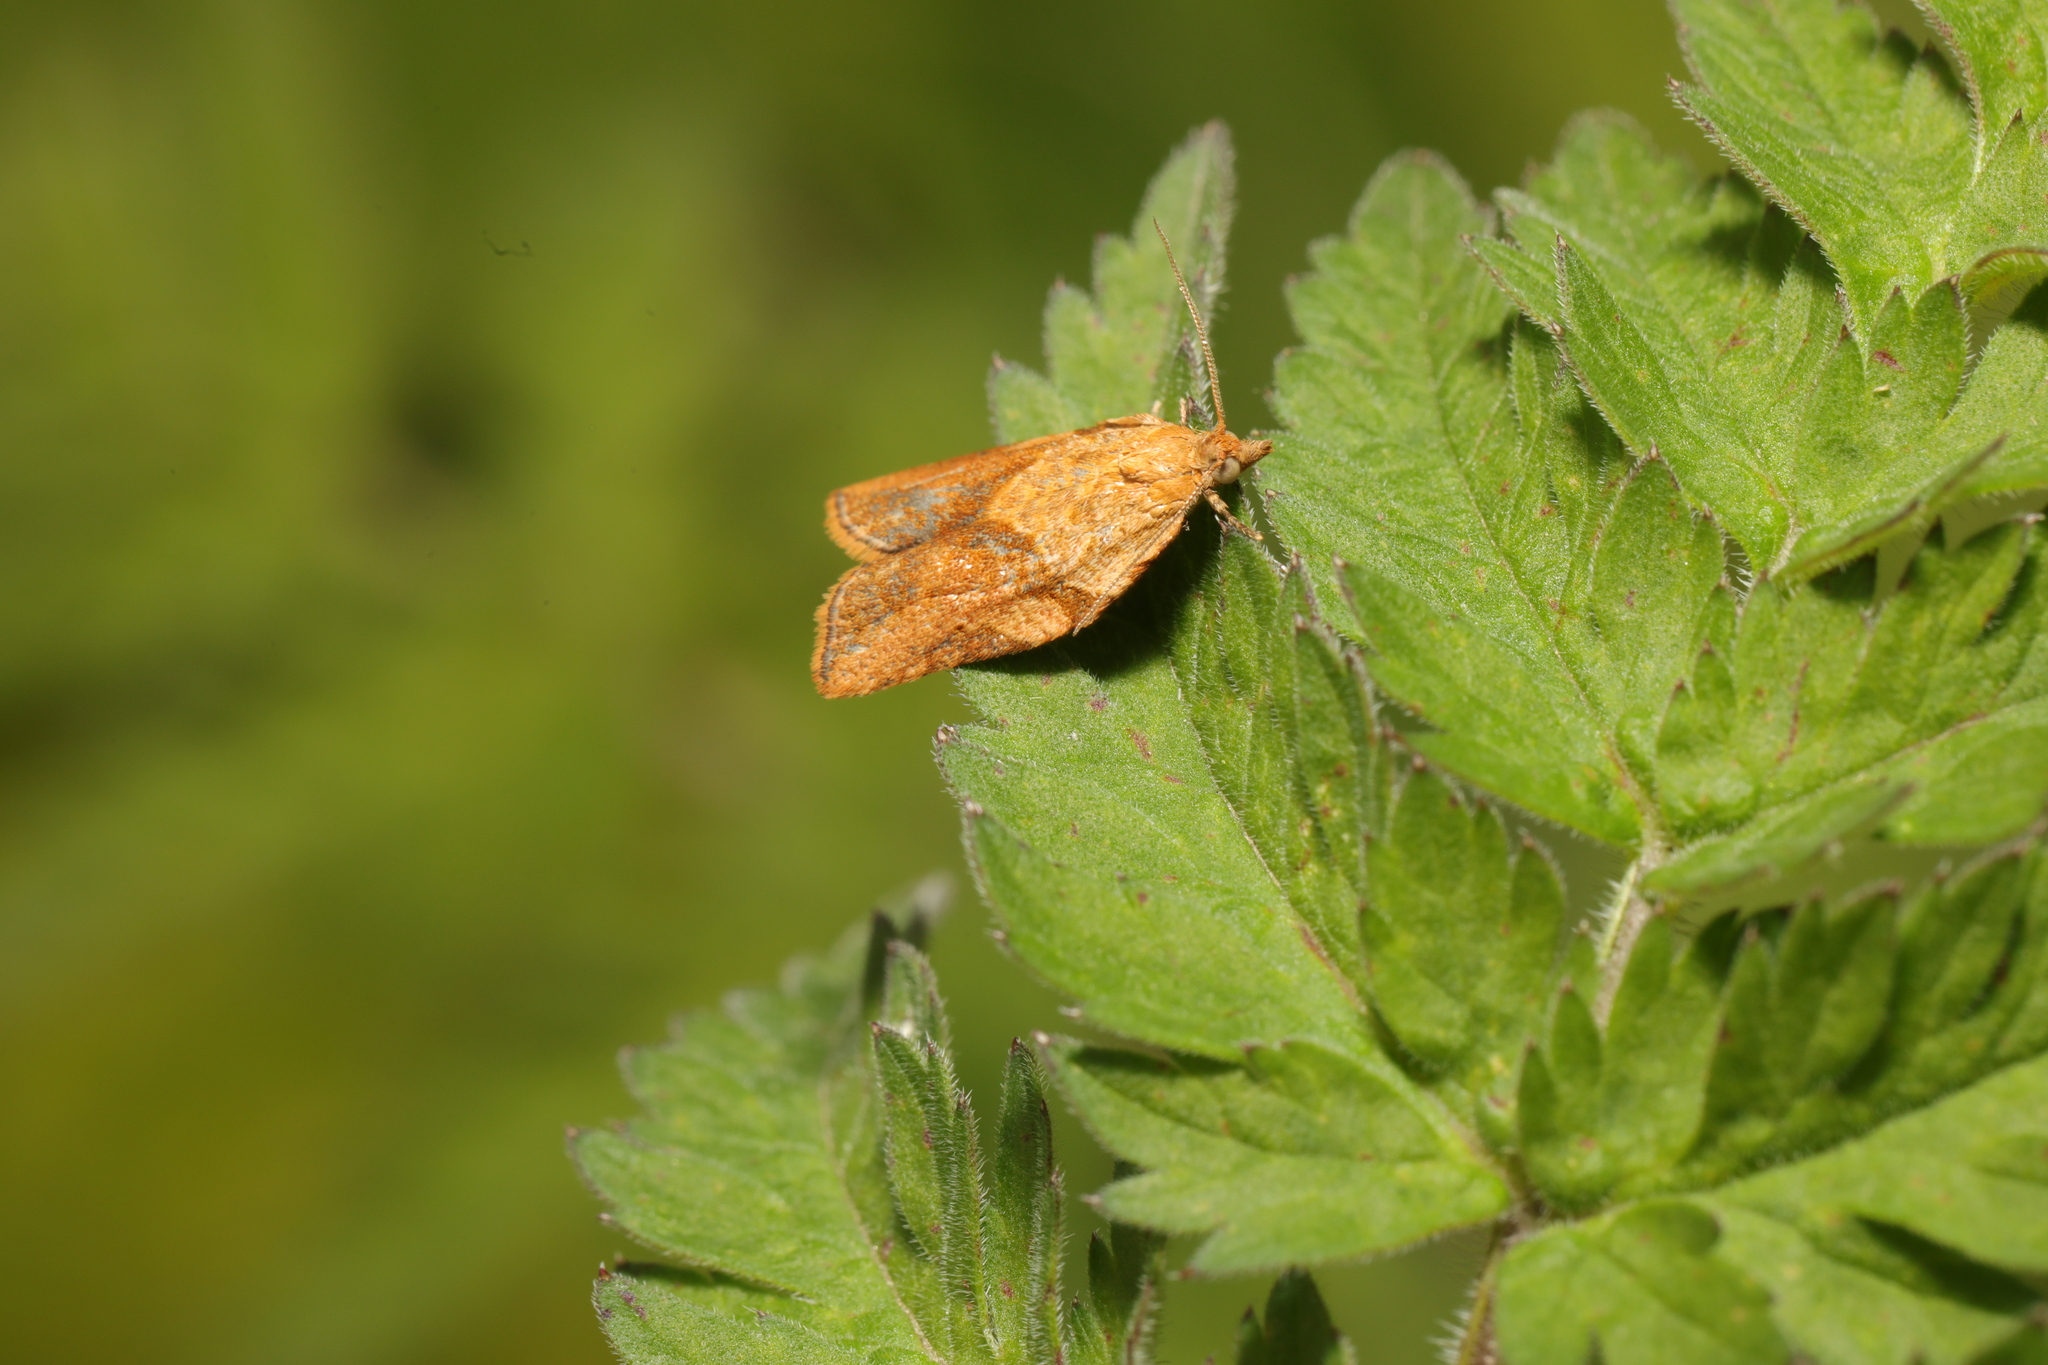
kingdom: Animalia
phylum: Arthropoda
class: Insecta
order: Lepidoptera
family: Tortricidae
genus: Epiphyas
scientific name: Epiphyas postvittana
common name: Light brown apple moth
